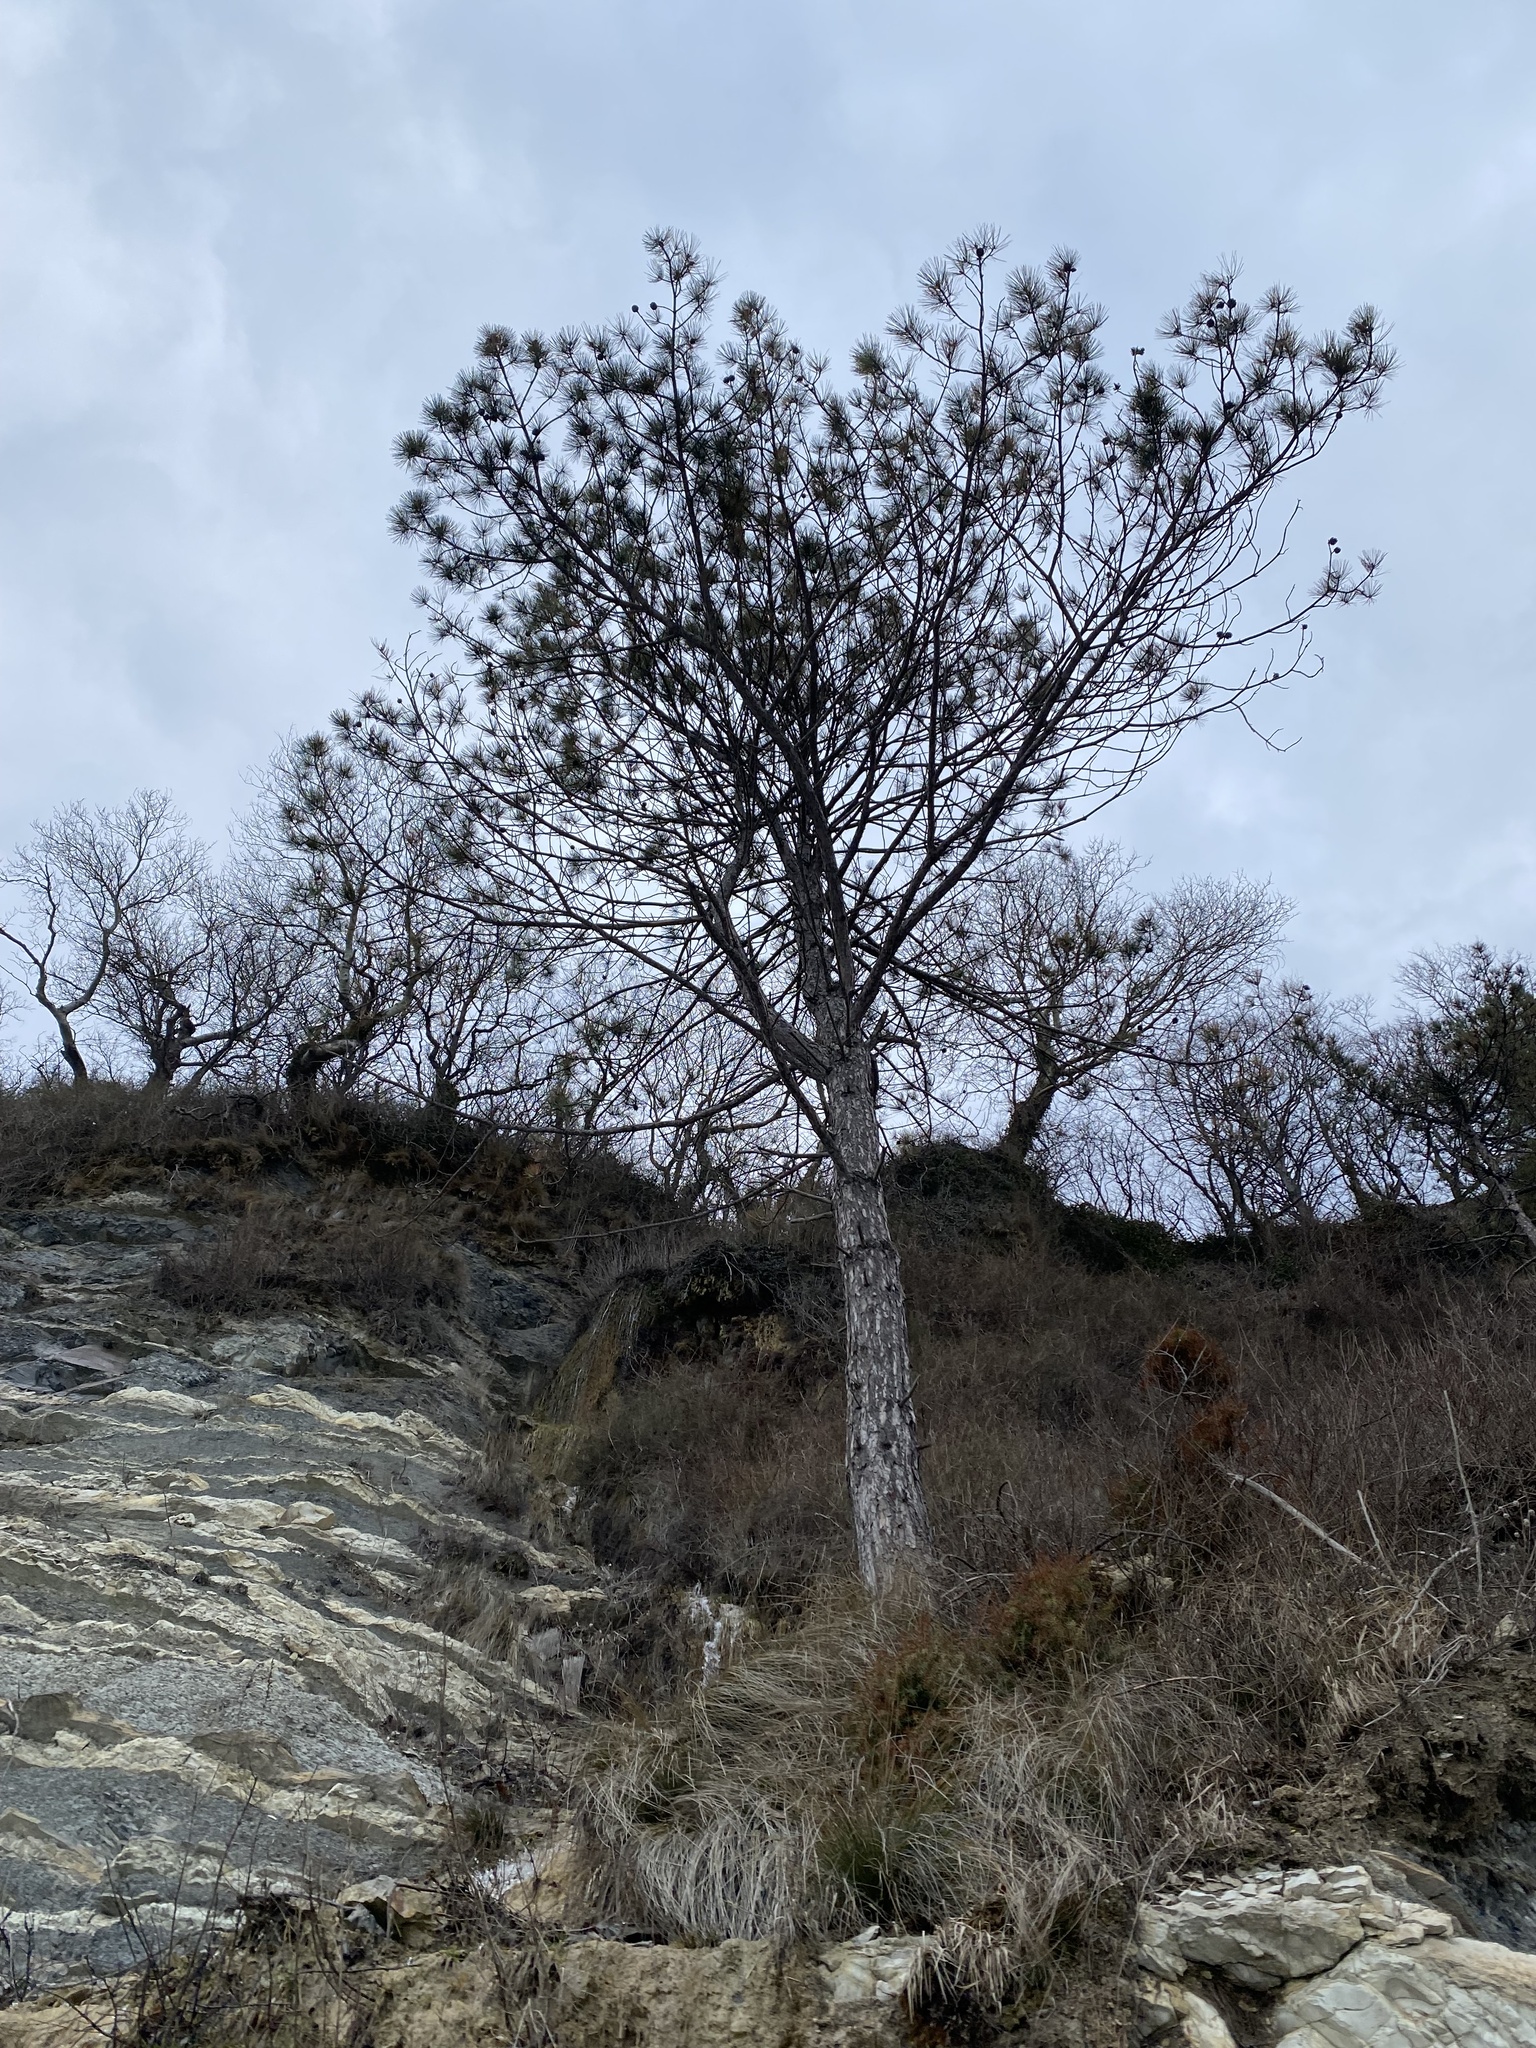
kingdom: Plantae
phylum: Tracheophyta
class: Pinopsida
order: Pinales
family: Pinaceae
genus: Pinus
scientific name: Pinus brutia
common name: Turkish pine
